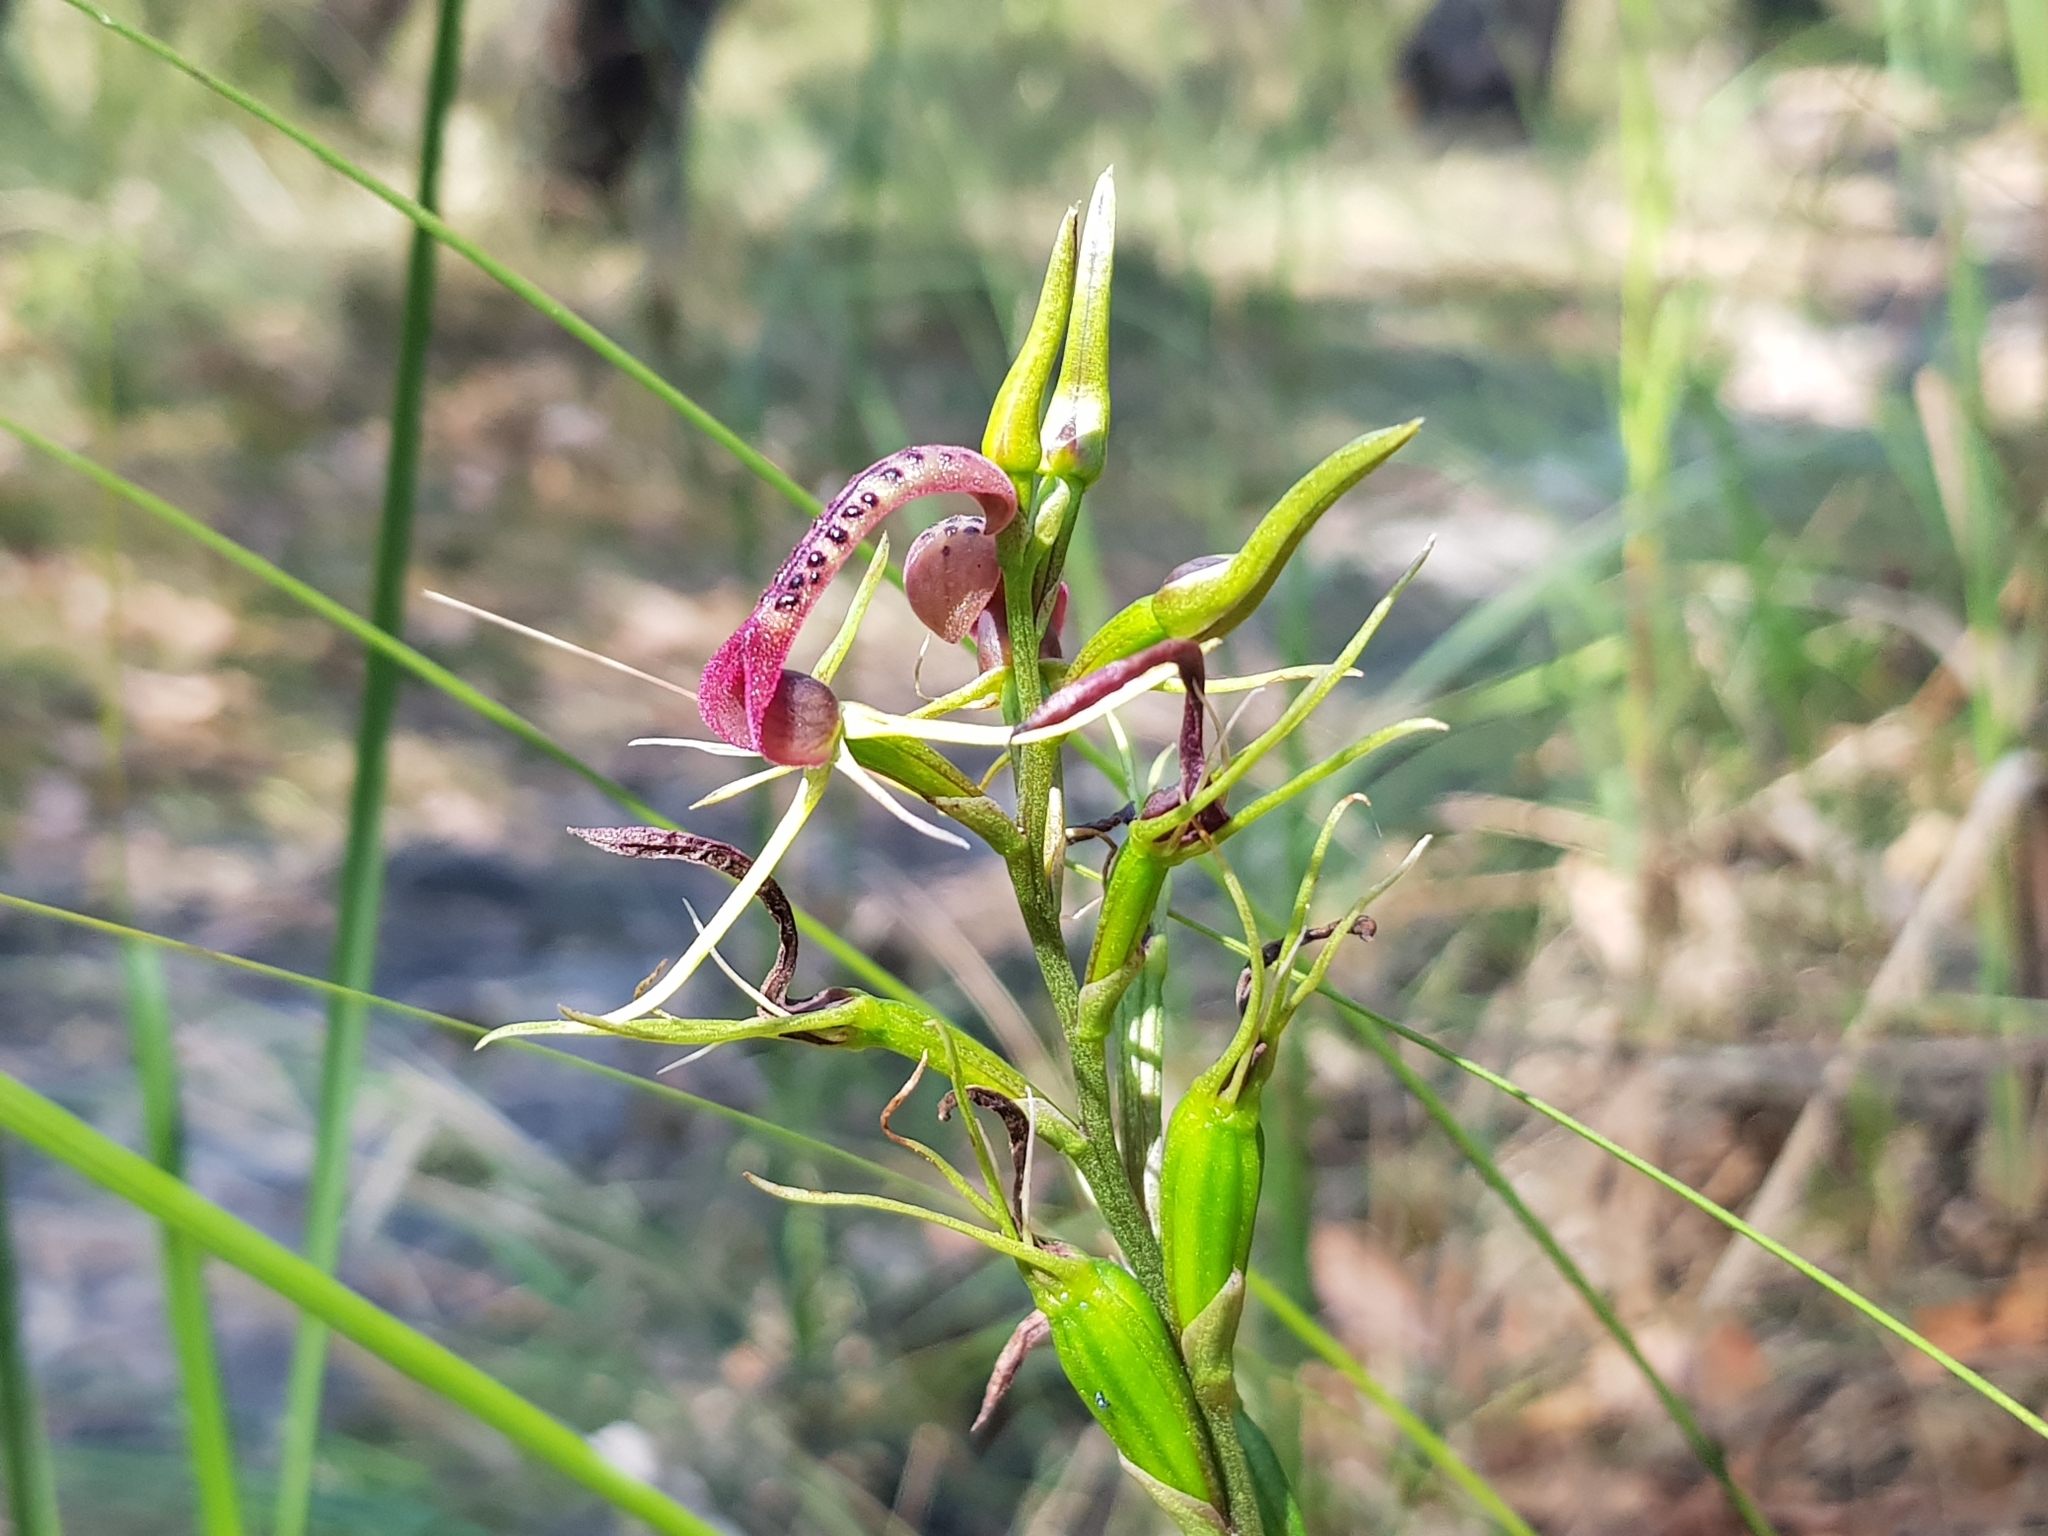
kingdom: Plantae
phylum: Tracheophyta
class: Liliopsida
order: Asparagales
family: Orchidaceae
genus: Cryptostylis
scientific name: Cryptostylis leptochila
